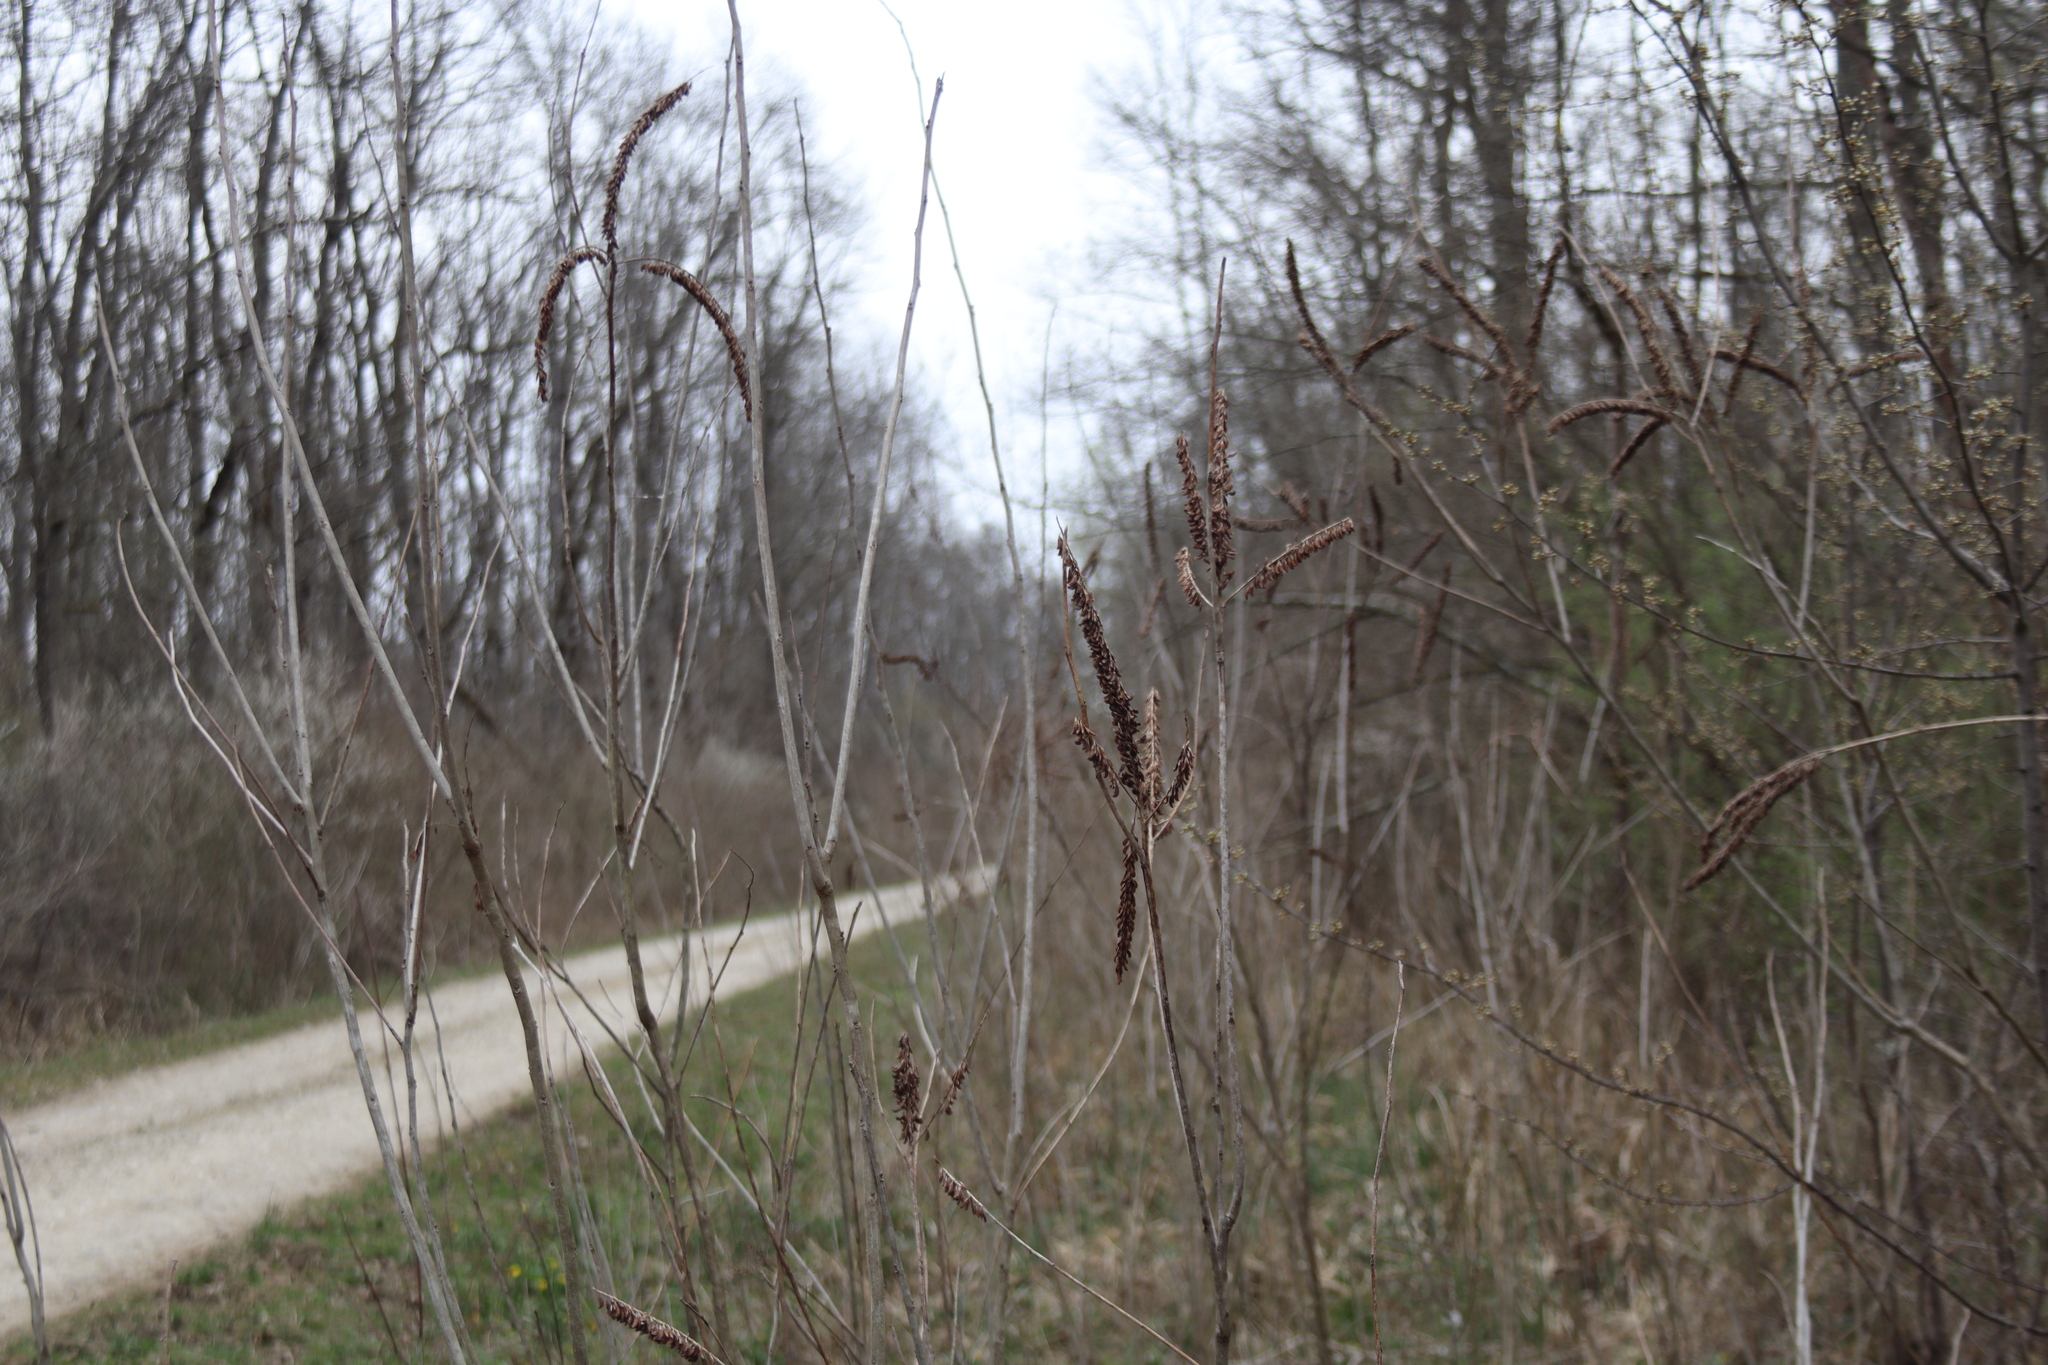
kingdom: Plantae
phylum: Tracheophyta
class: Magnoliopsida
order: Fabales
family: Fabaceae
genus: Amorpha
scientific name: Amorpha fruticosa
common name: False indigo
